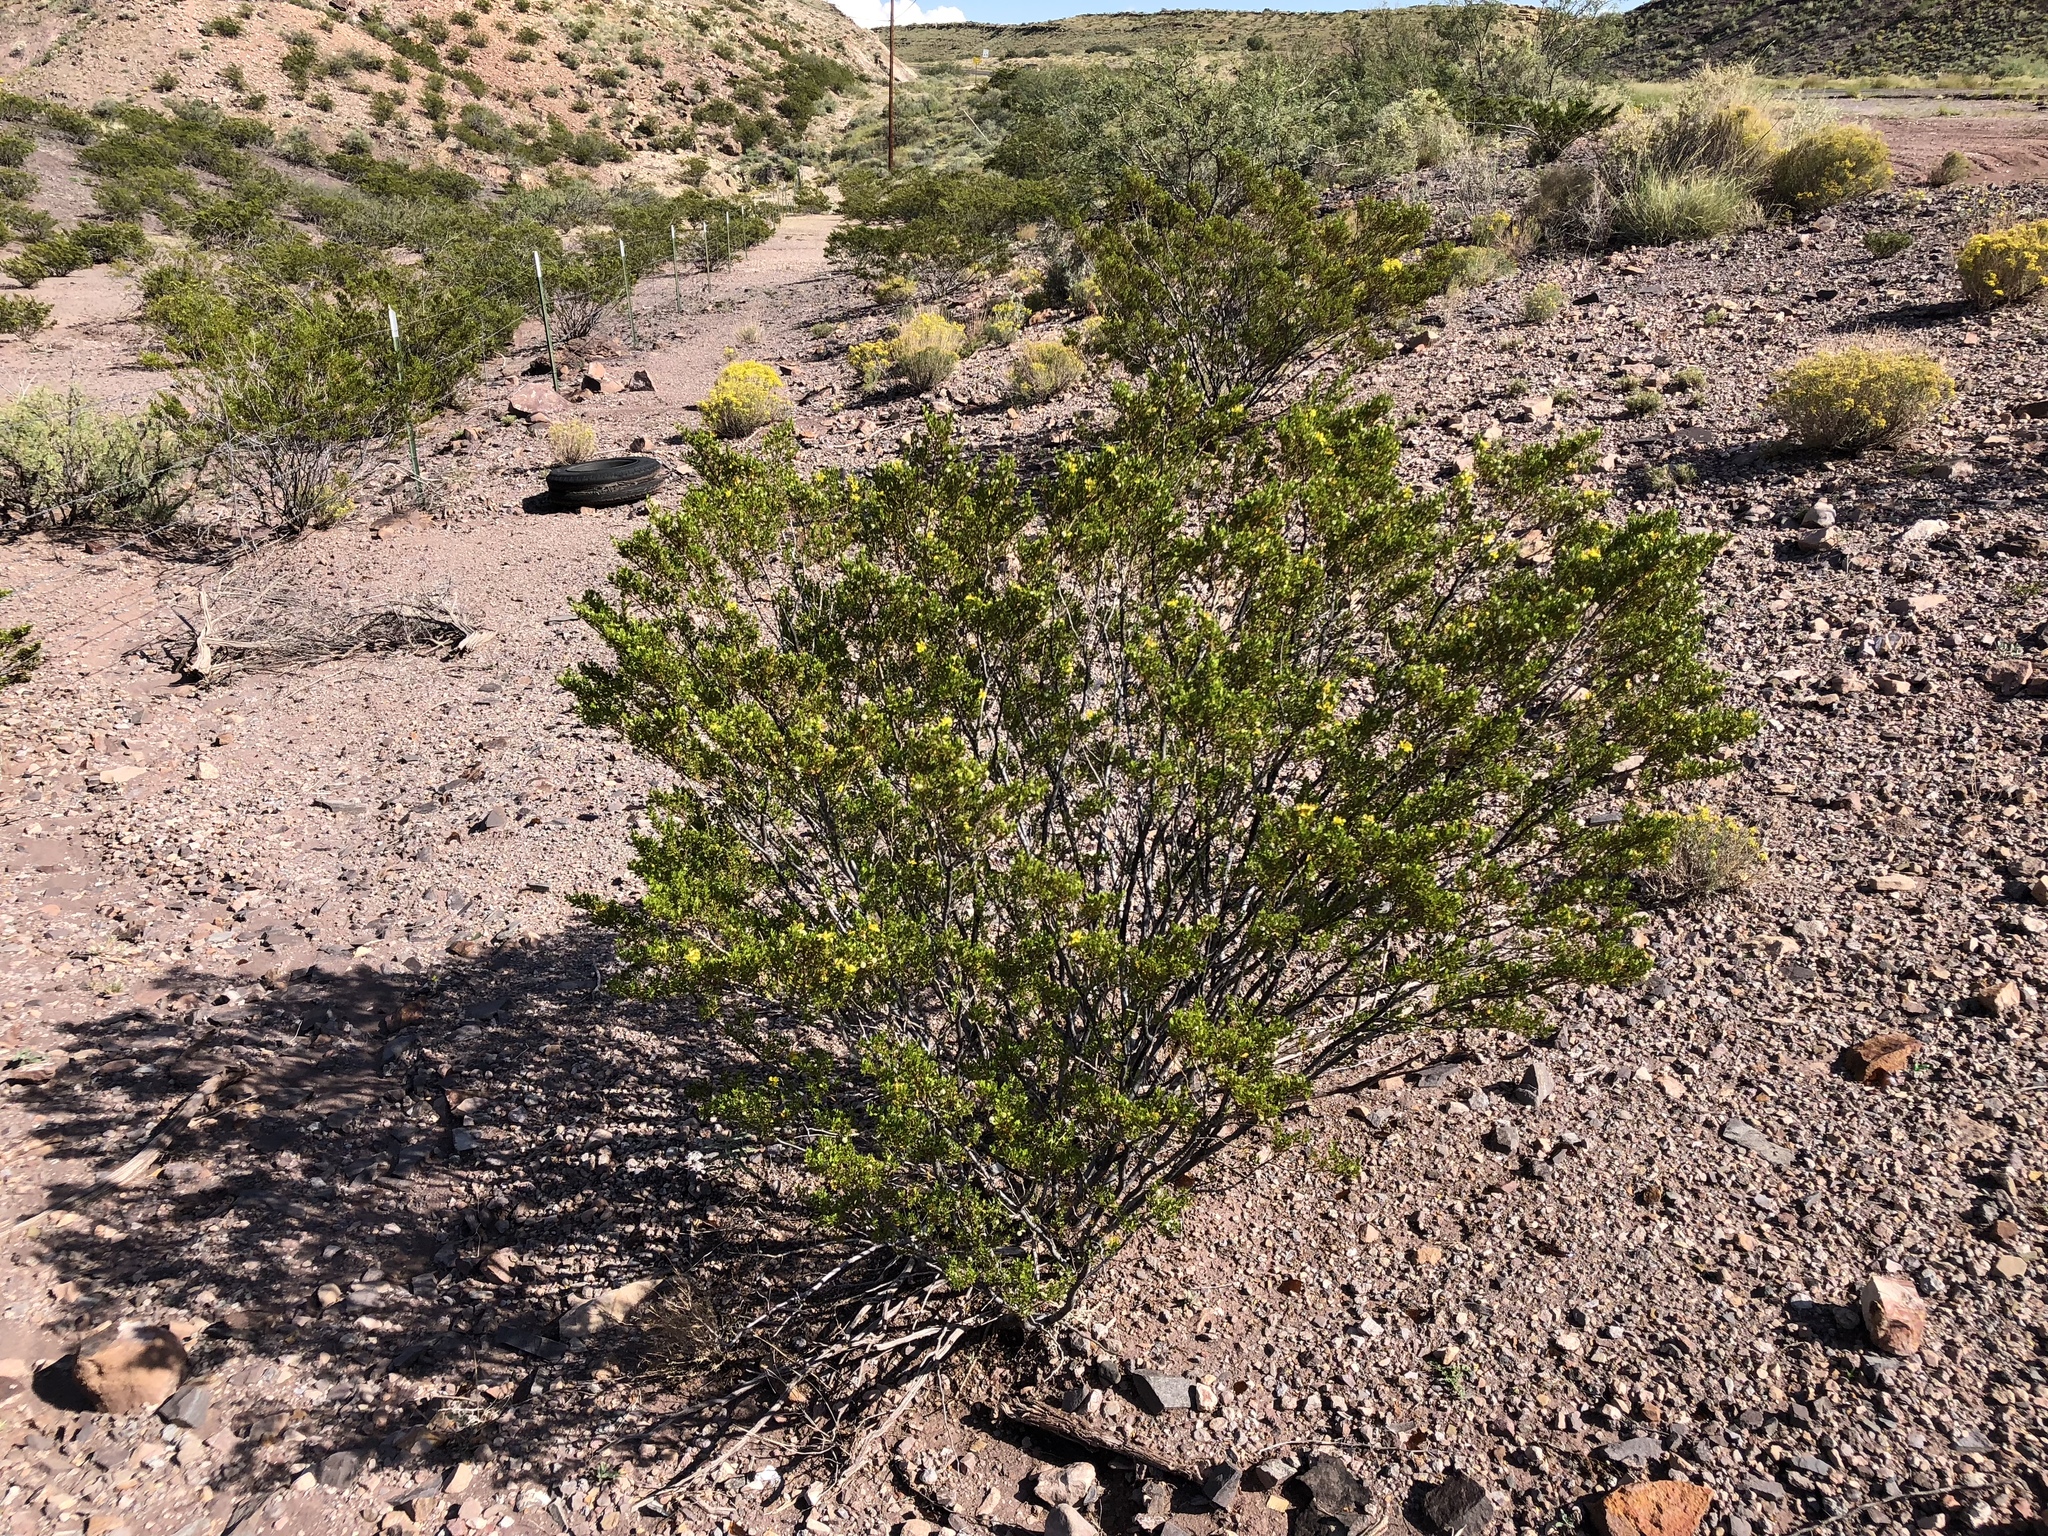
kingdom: Plantae
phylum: Tracheophyta
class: Magnoliopsida
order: Zygophyllales
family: Zygophyllaceae
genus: Larrea
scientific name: Larrea tridentata
